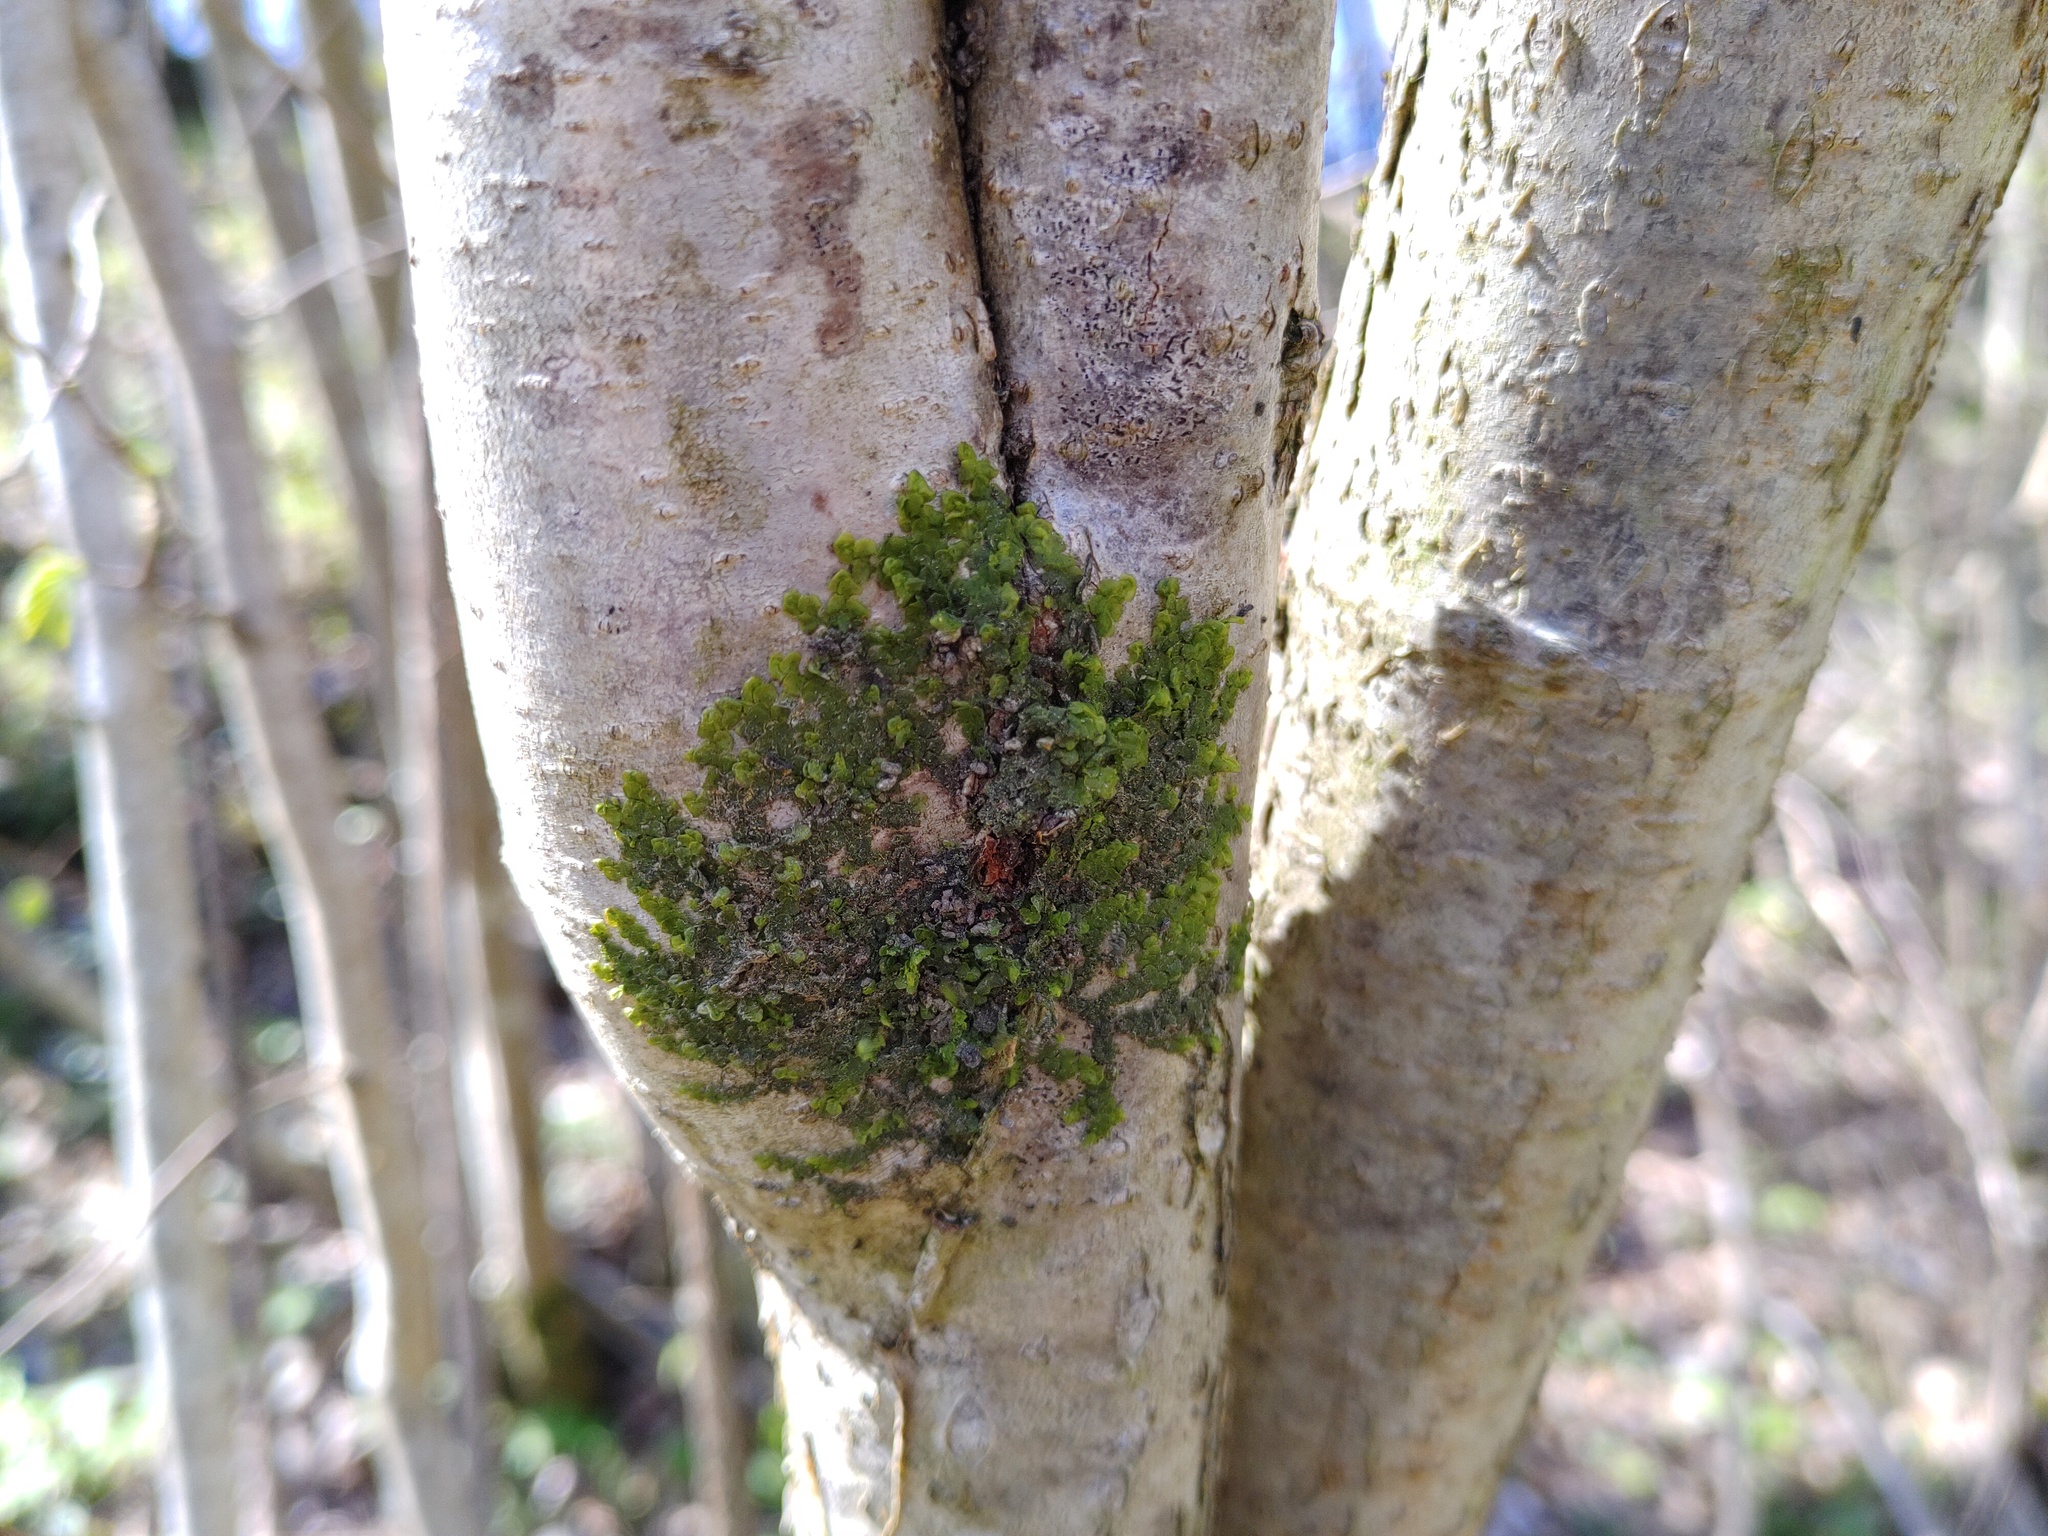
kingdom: Plantae
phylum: Marchantiophyta
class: Jungermanniopsida
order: Porellales
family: Radulaceae
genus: Radula
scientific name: Radula complanata
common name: Flat-leaved scalewort
